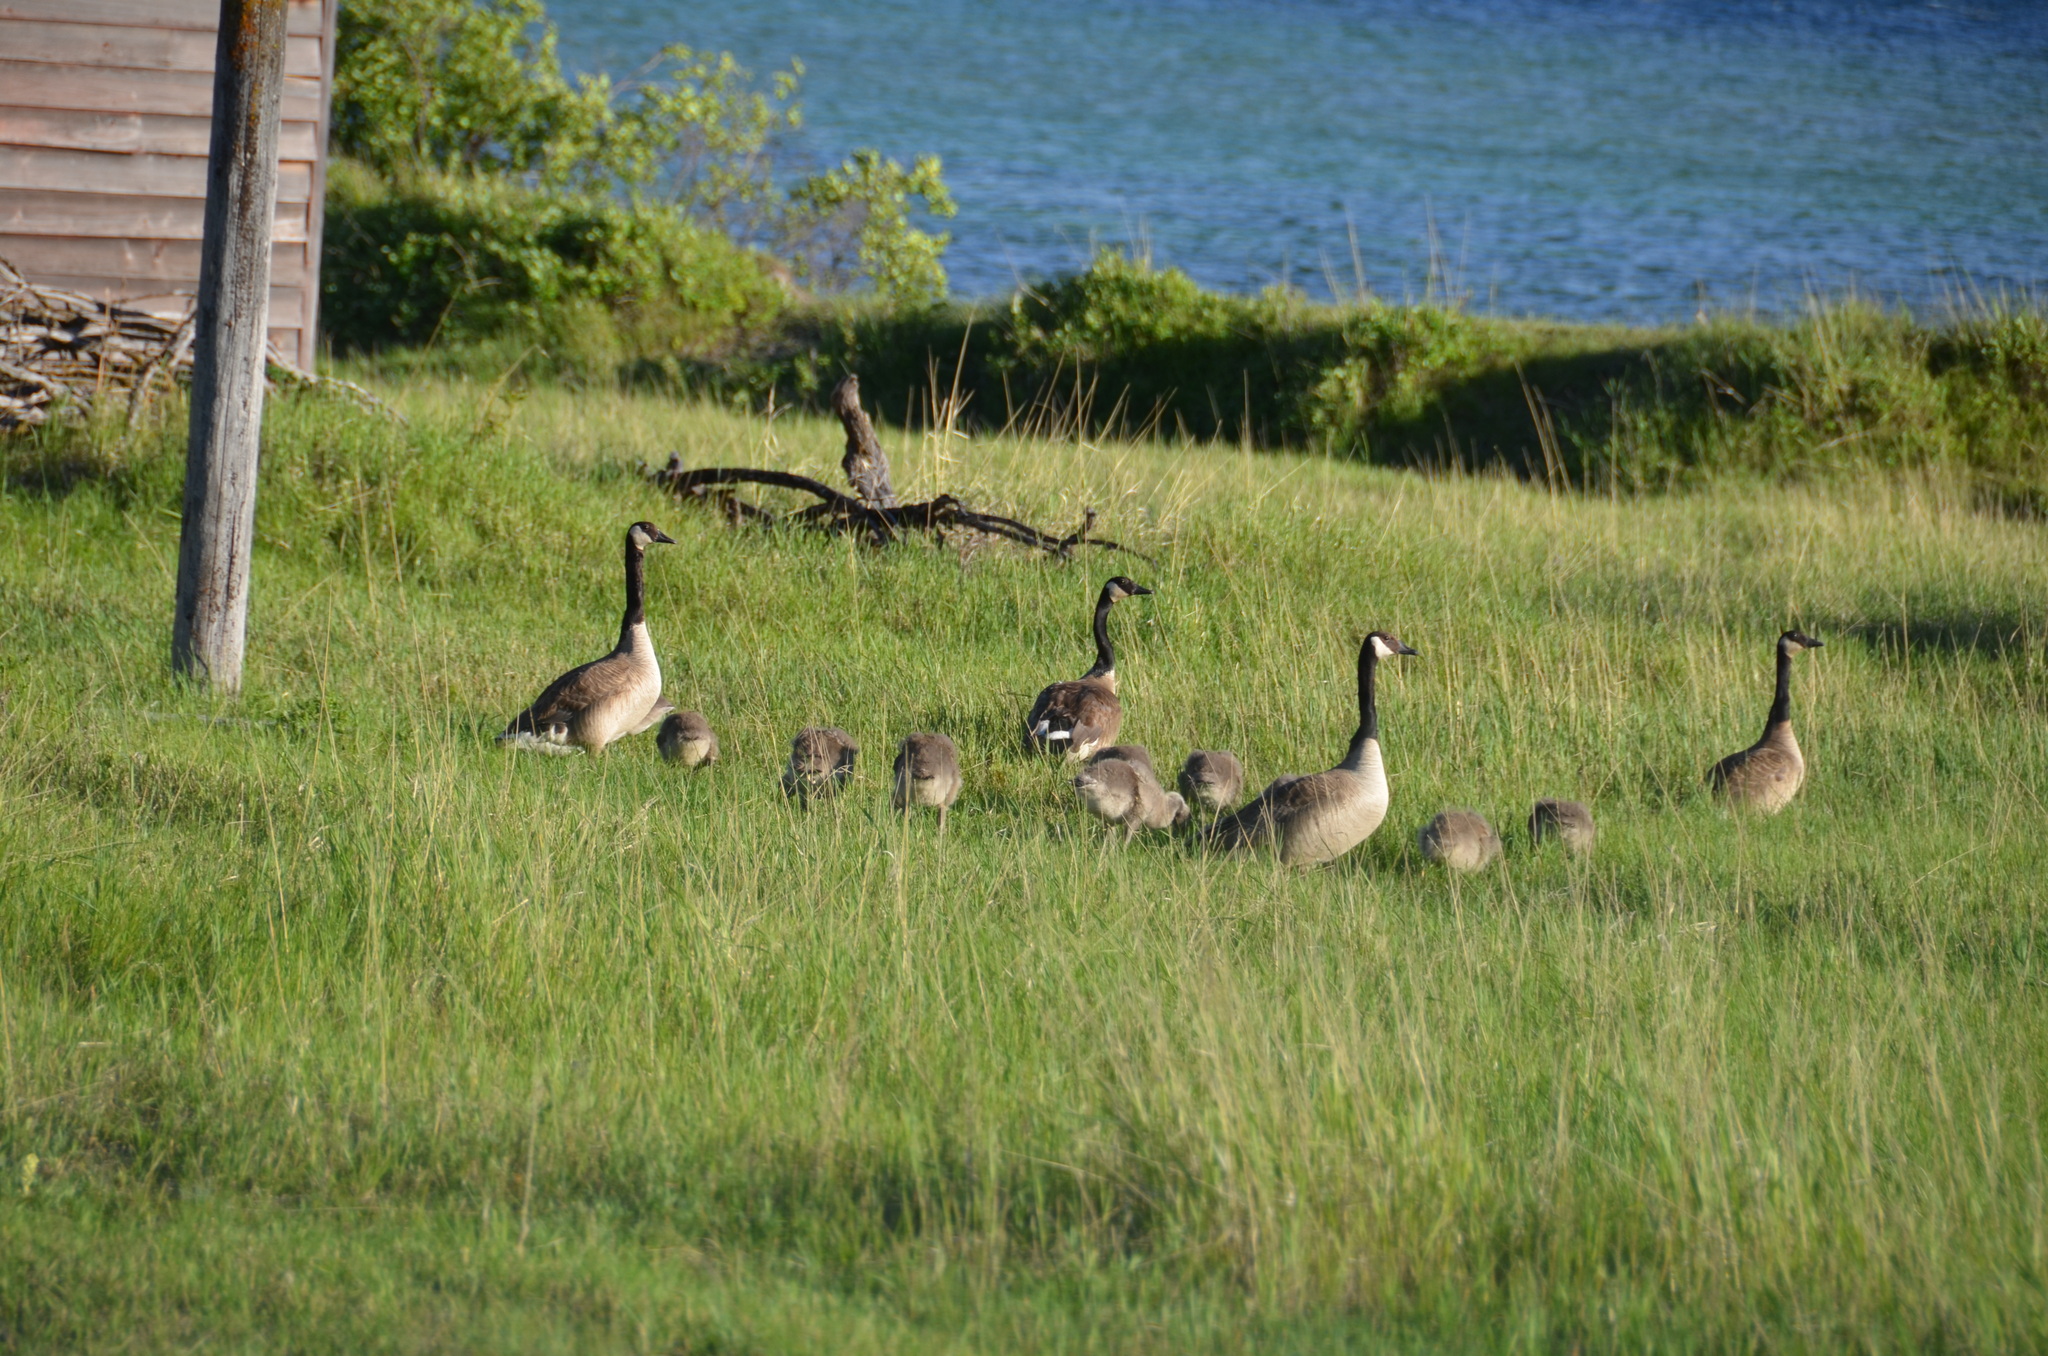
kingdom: Animalia
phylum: Chordata
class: Aves
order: Anseriformes
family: Anatidae
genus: Branta
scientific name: Branta canadensis
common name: Canada goose
